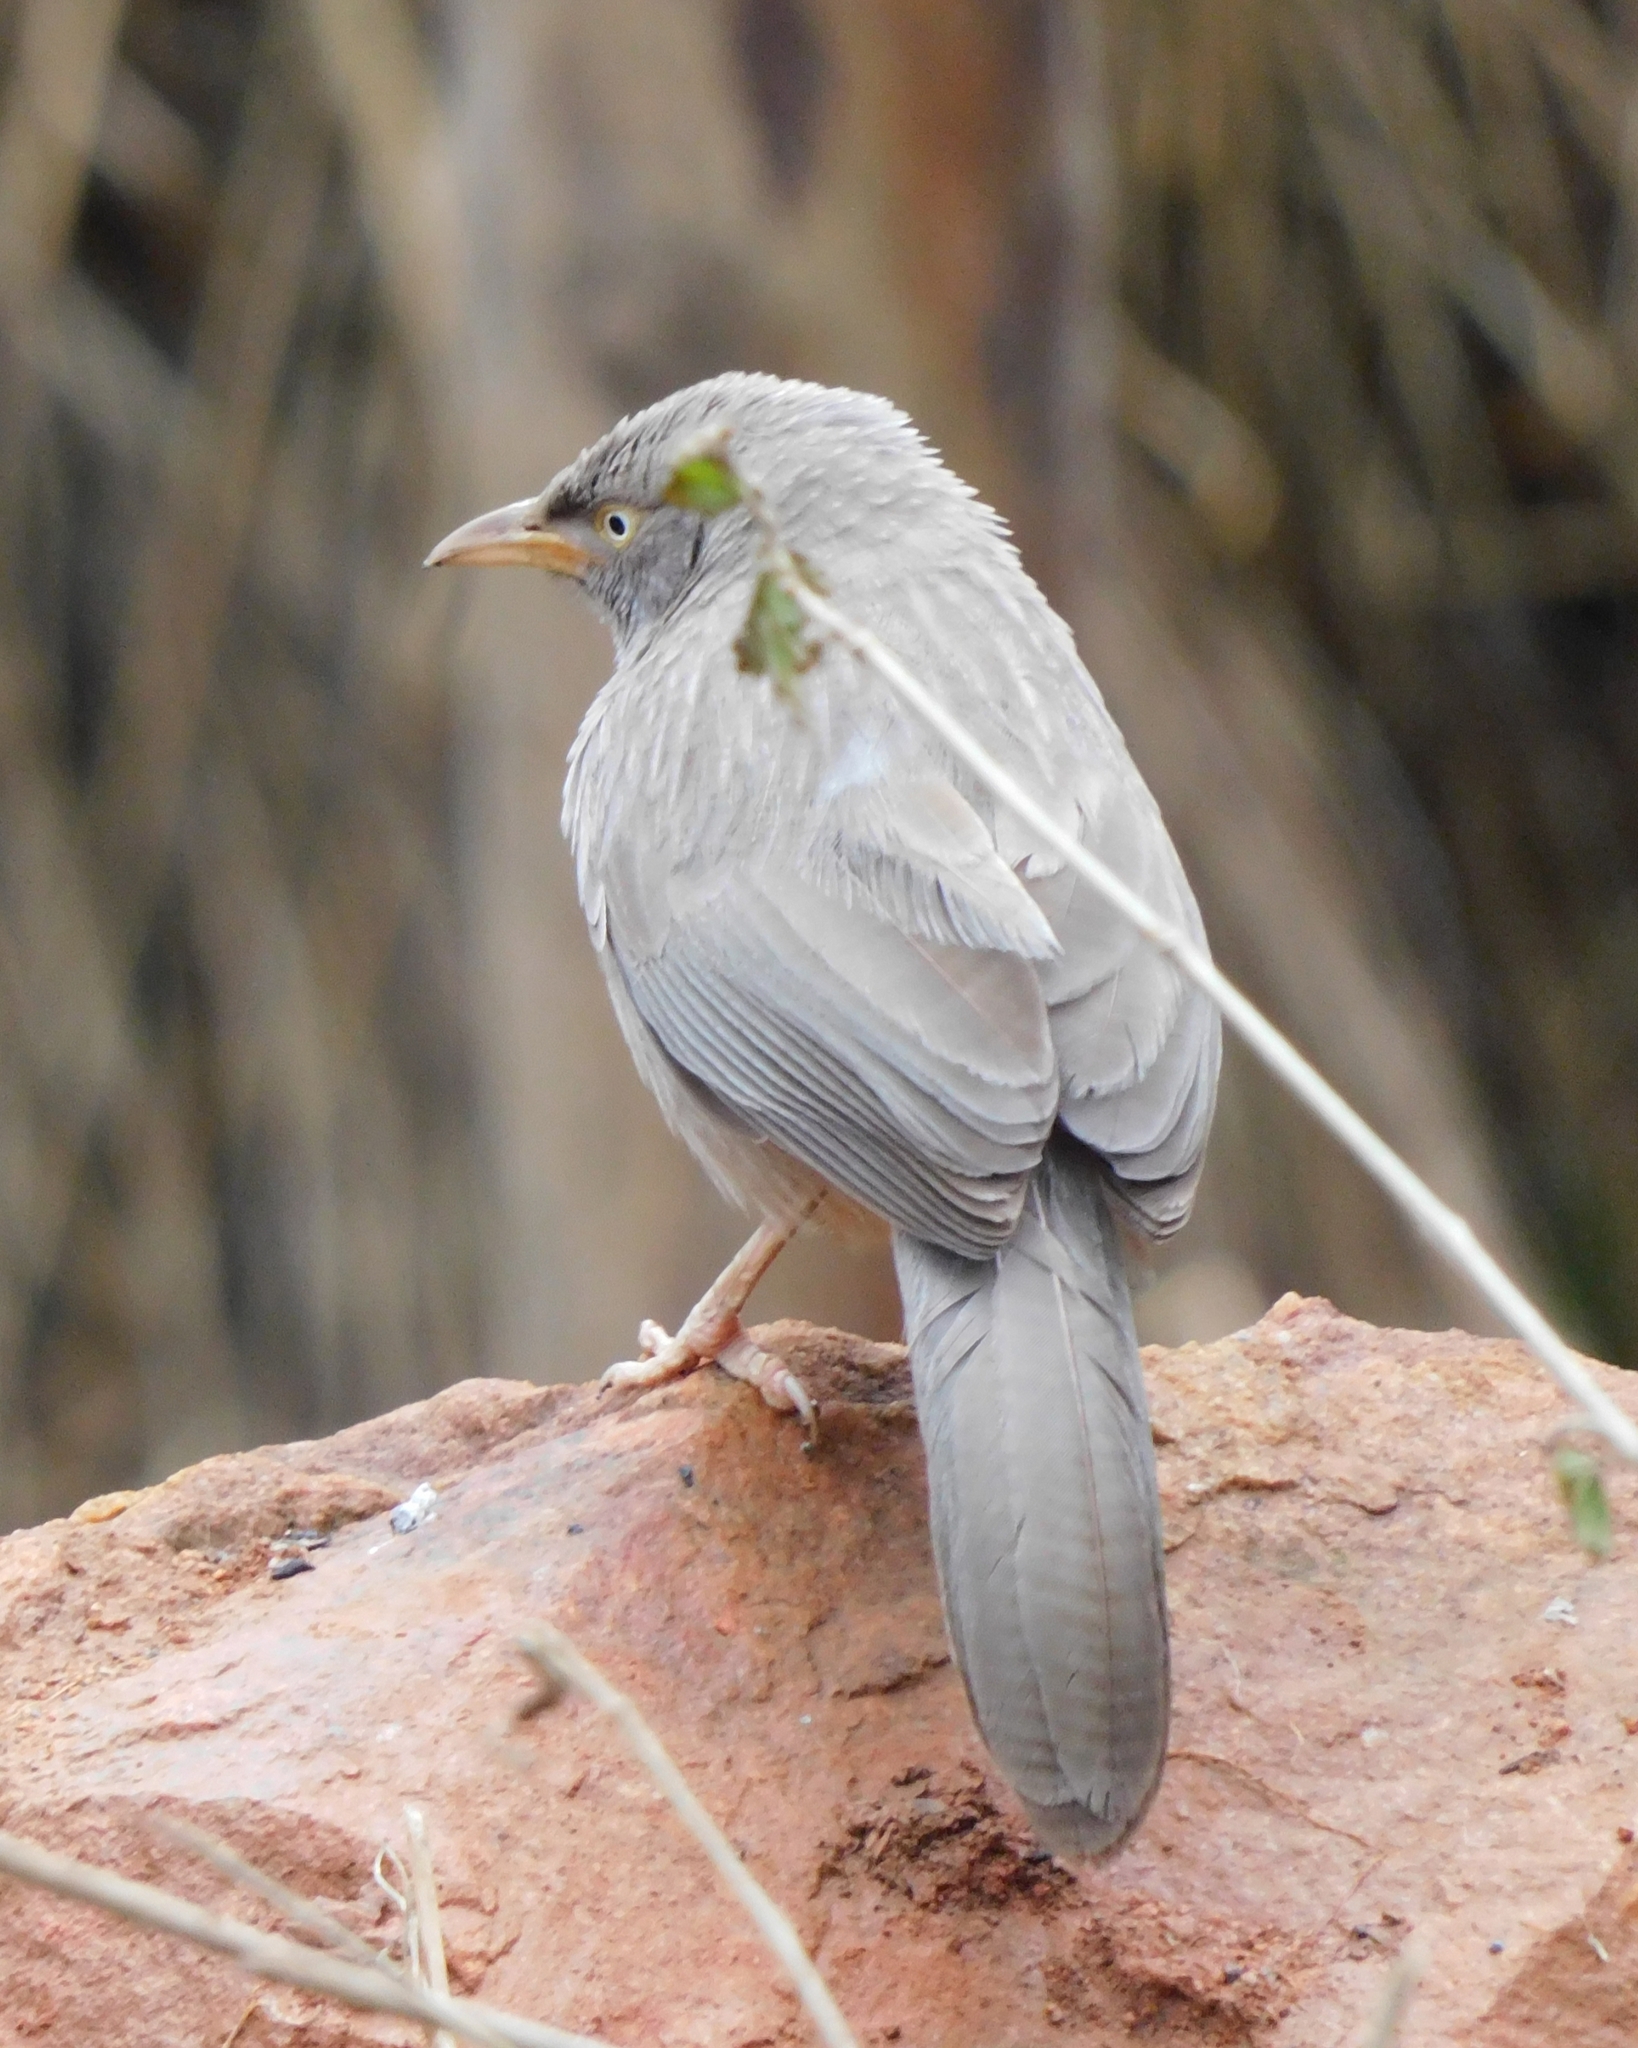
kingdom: Animalia
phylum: Chordata
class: Aves
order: Passeriformes
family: Leiothrichidae
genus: Turdoides
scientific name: Turdoides striata
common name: Jungle babbler
